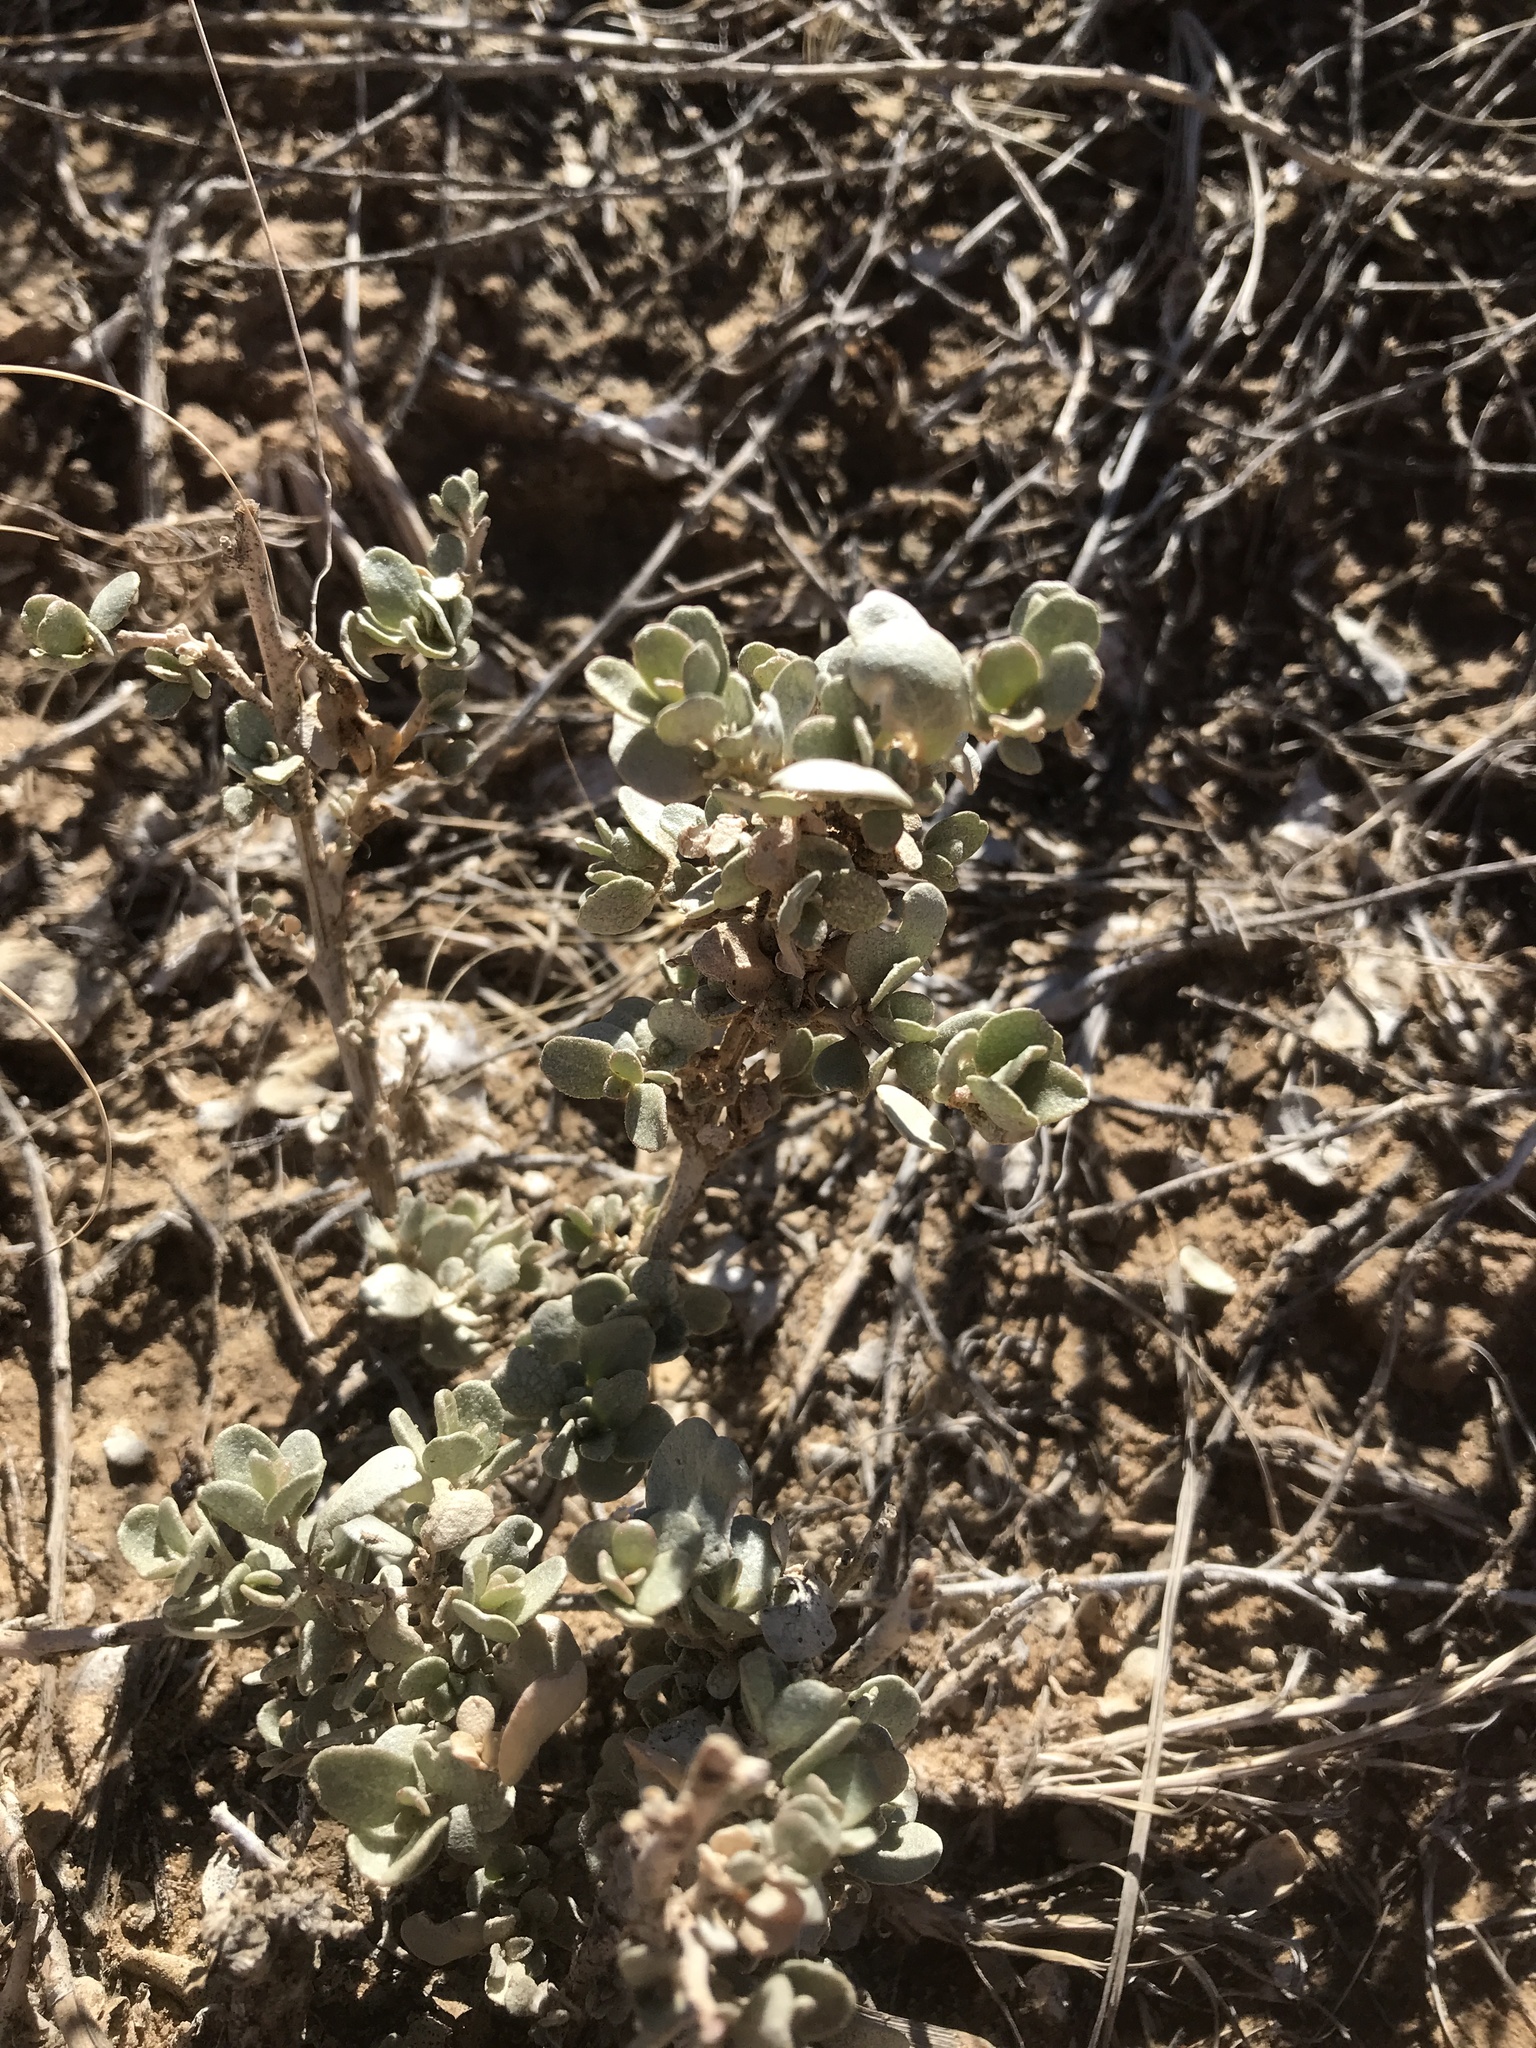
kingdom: Plantae
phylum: Tracheophyta
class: Magnoliopsida
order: Caryophyllales
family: Amaranthaceae
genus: Atriplex
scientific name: Atriplex confertifolia
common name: Shadscale
